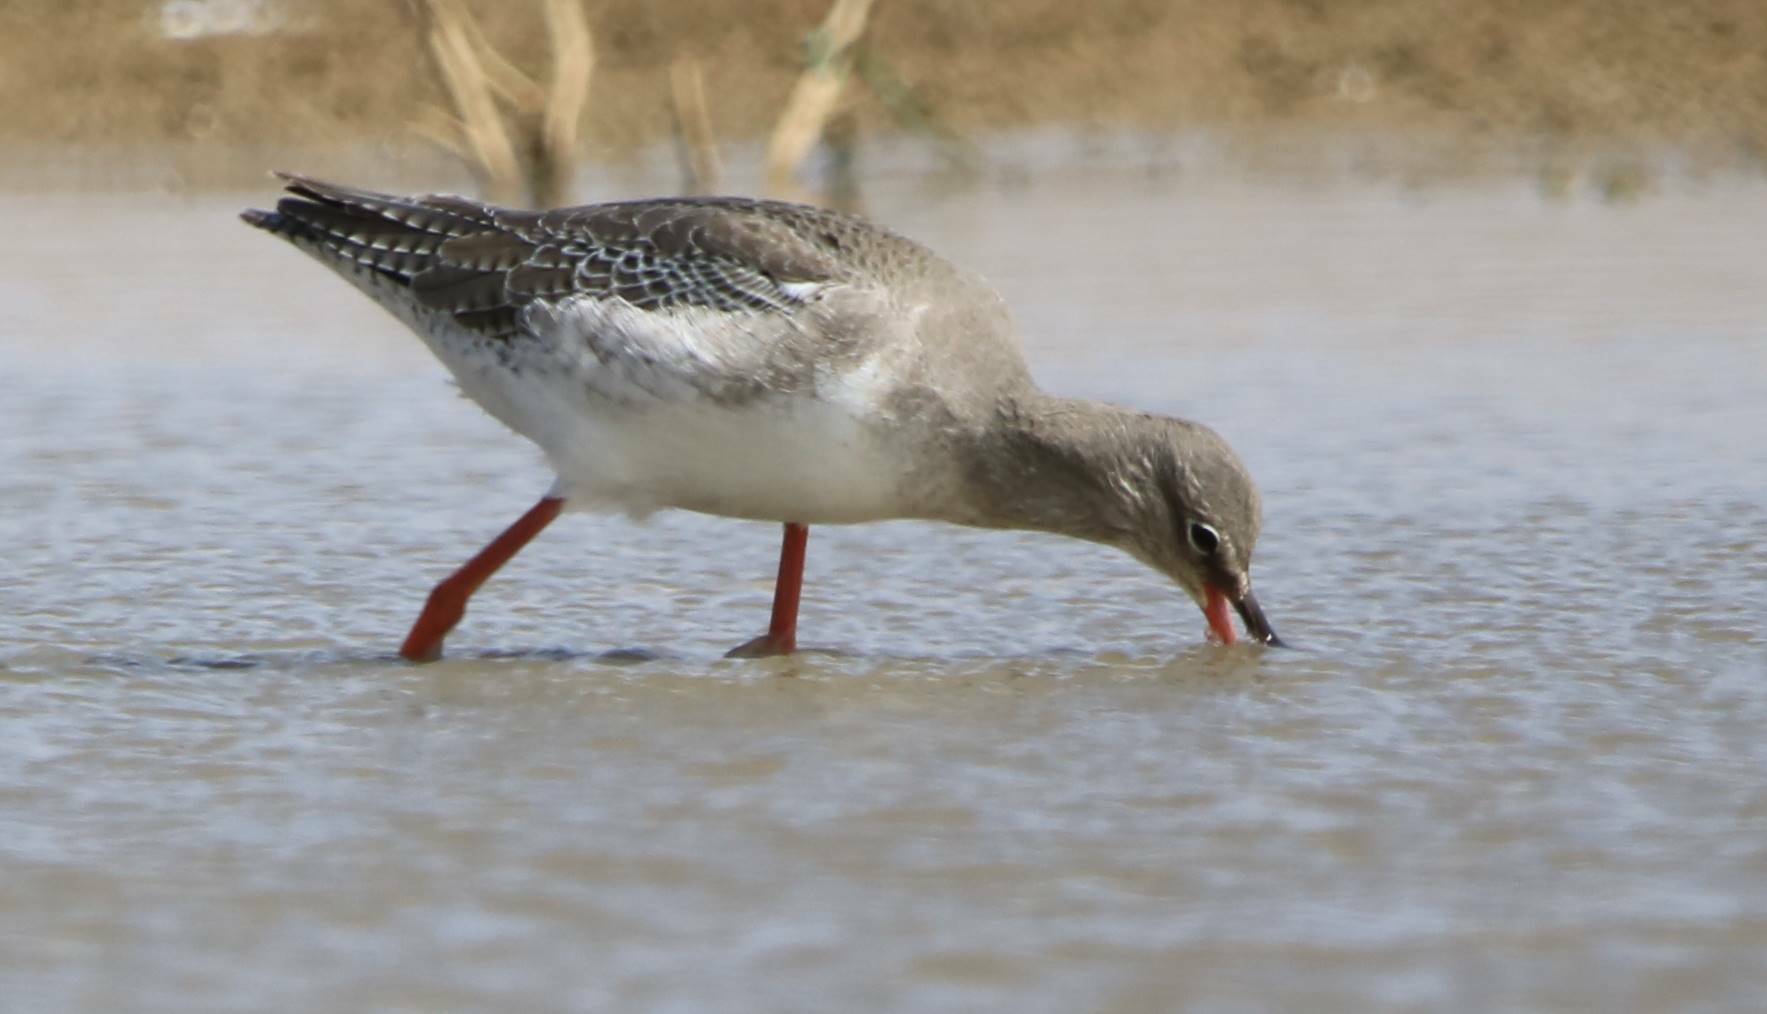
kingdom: Animalia
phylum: Chordata
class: Aves
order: Charadriiformes
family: Scolopacidae
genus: Tringa
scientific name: Tringa erythropus
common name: Spotted redshank
